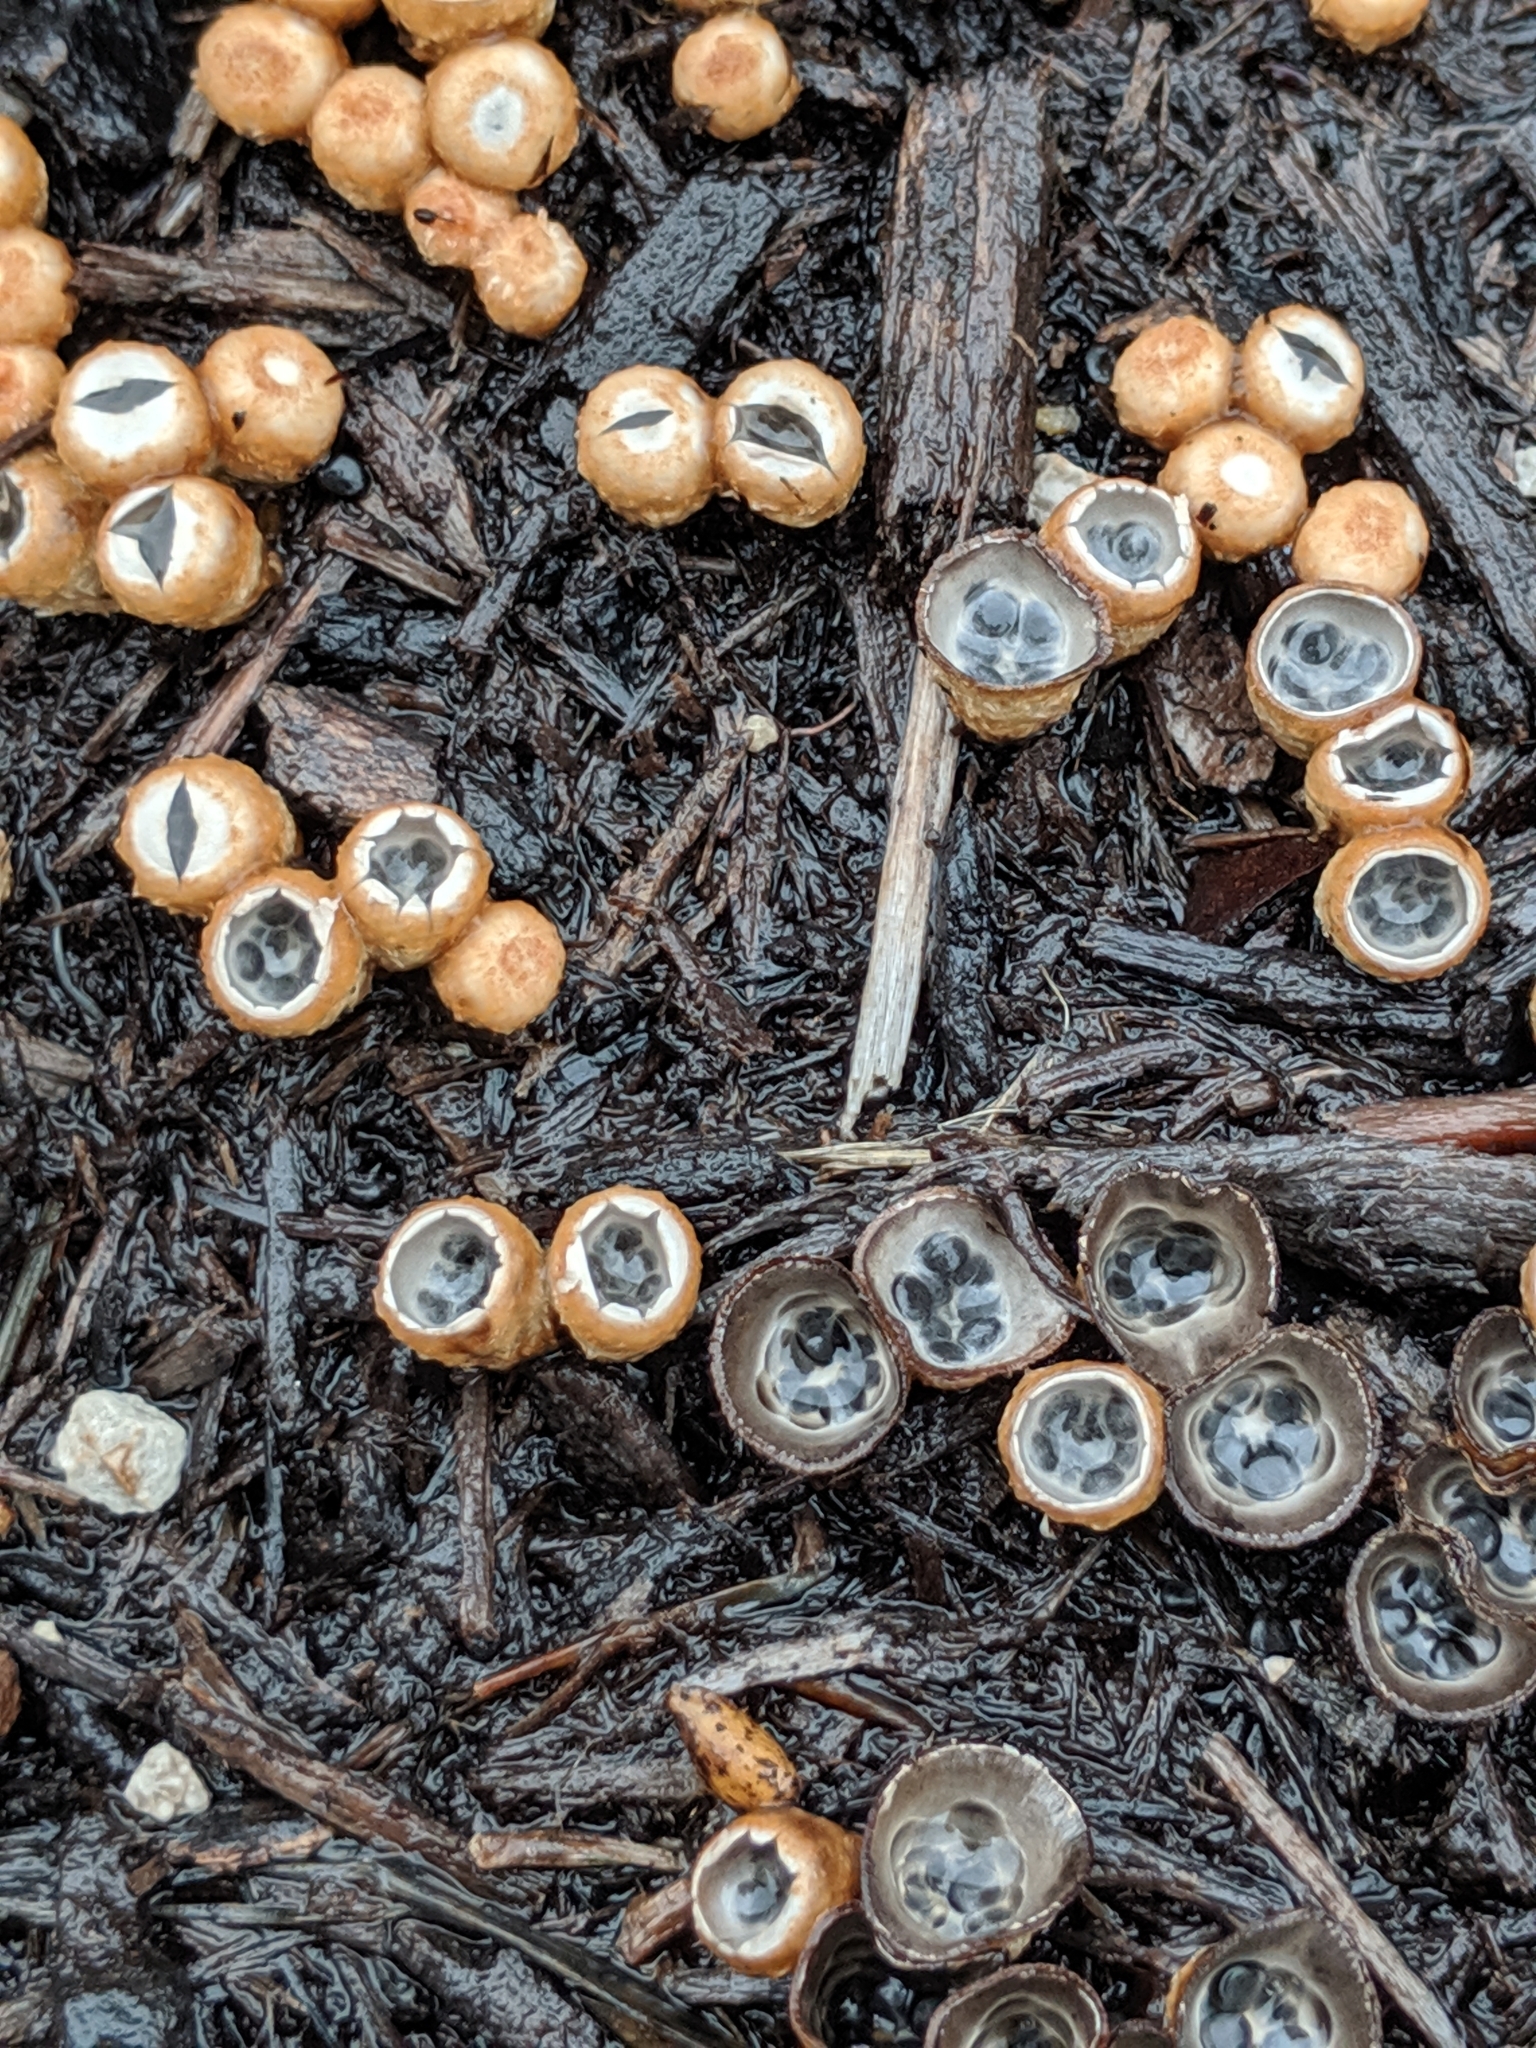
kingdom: Fungi
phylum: Basidiomycota
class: Agaricomycetes
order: Agaricales
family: Agaricaceae
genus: Cyathus
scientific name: Cyathus stercoreus
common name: Dung bird's nest
